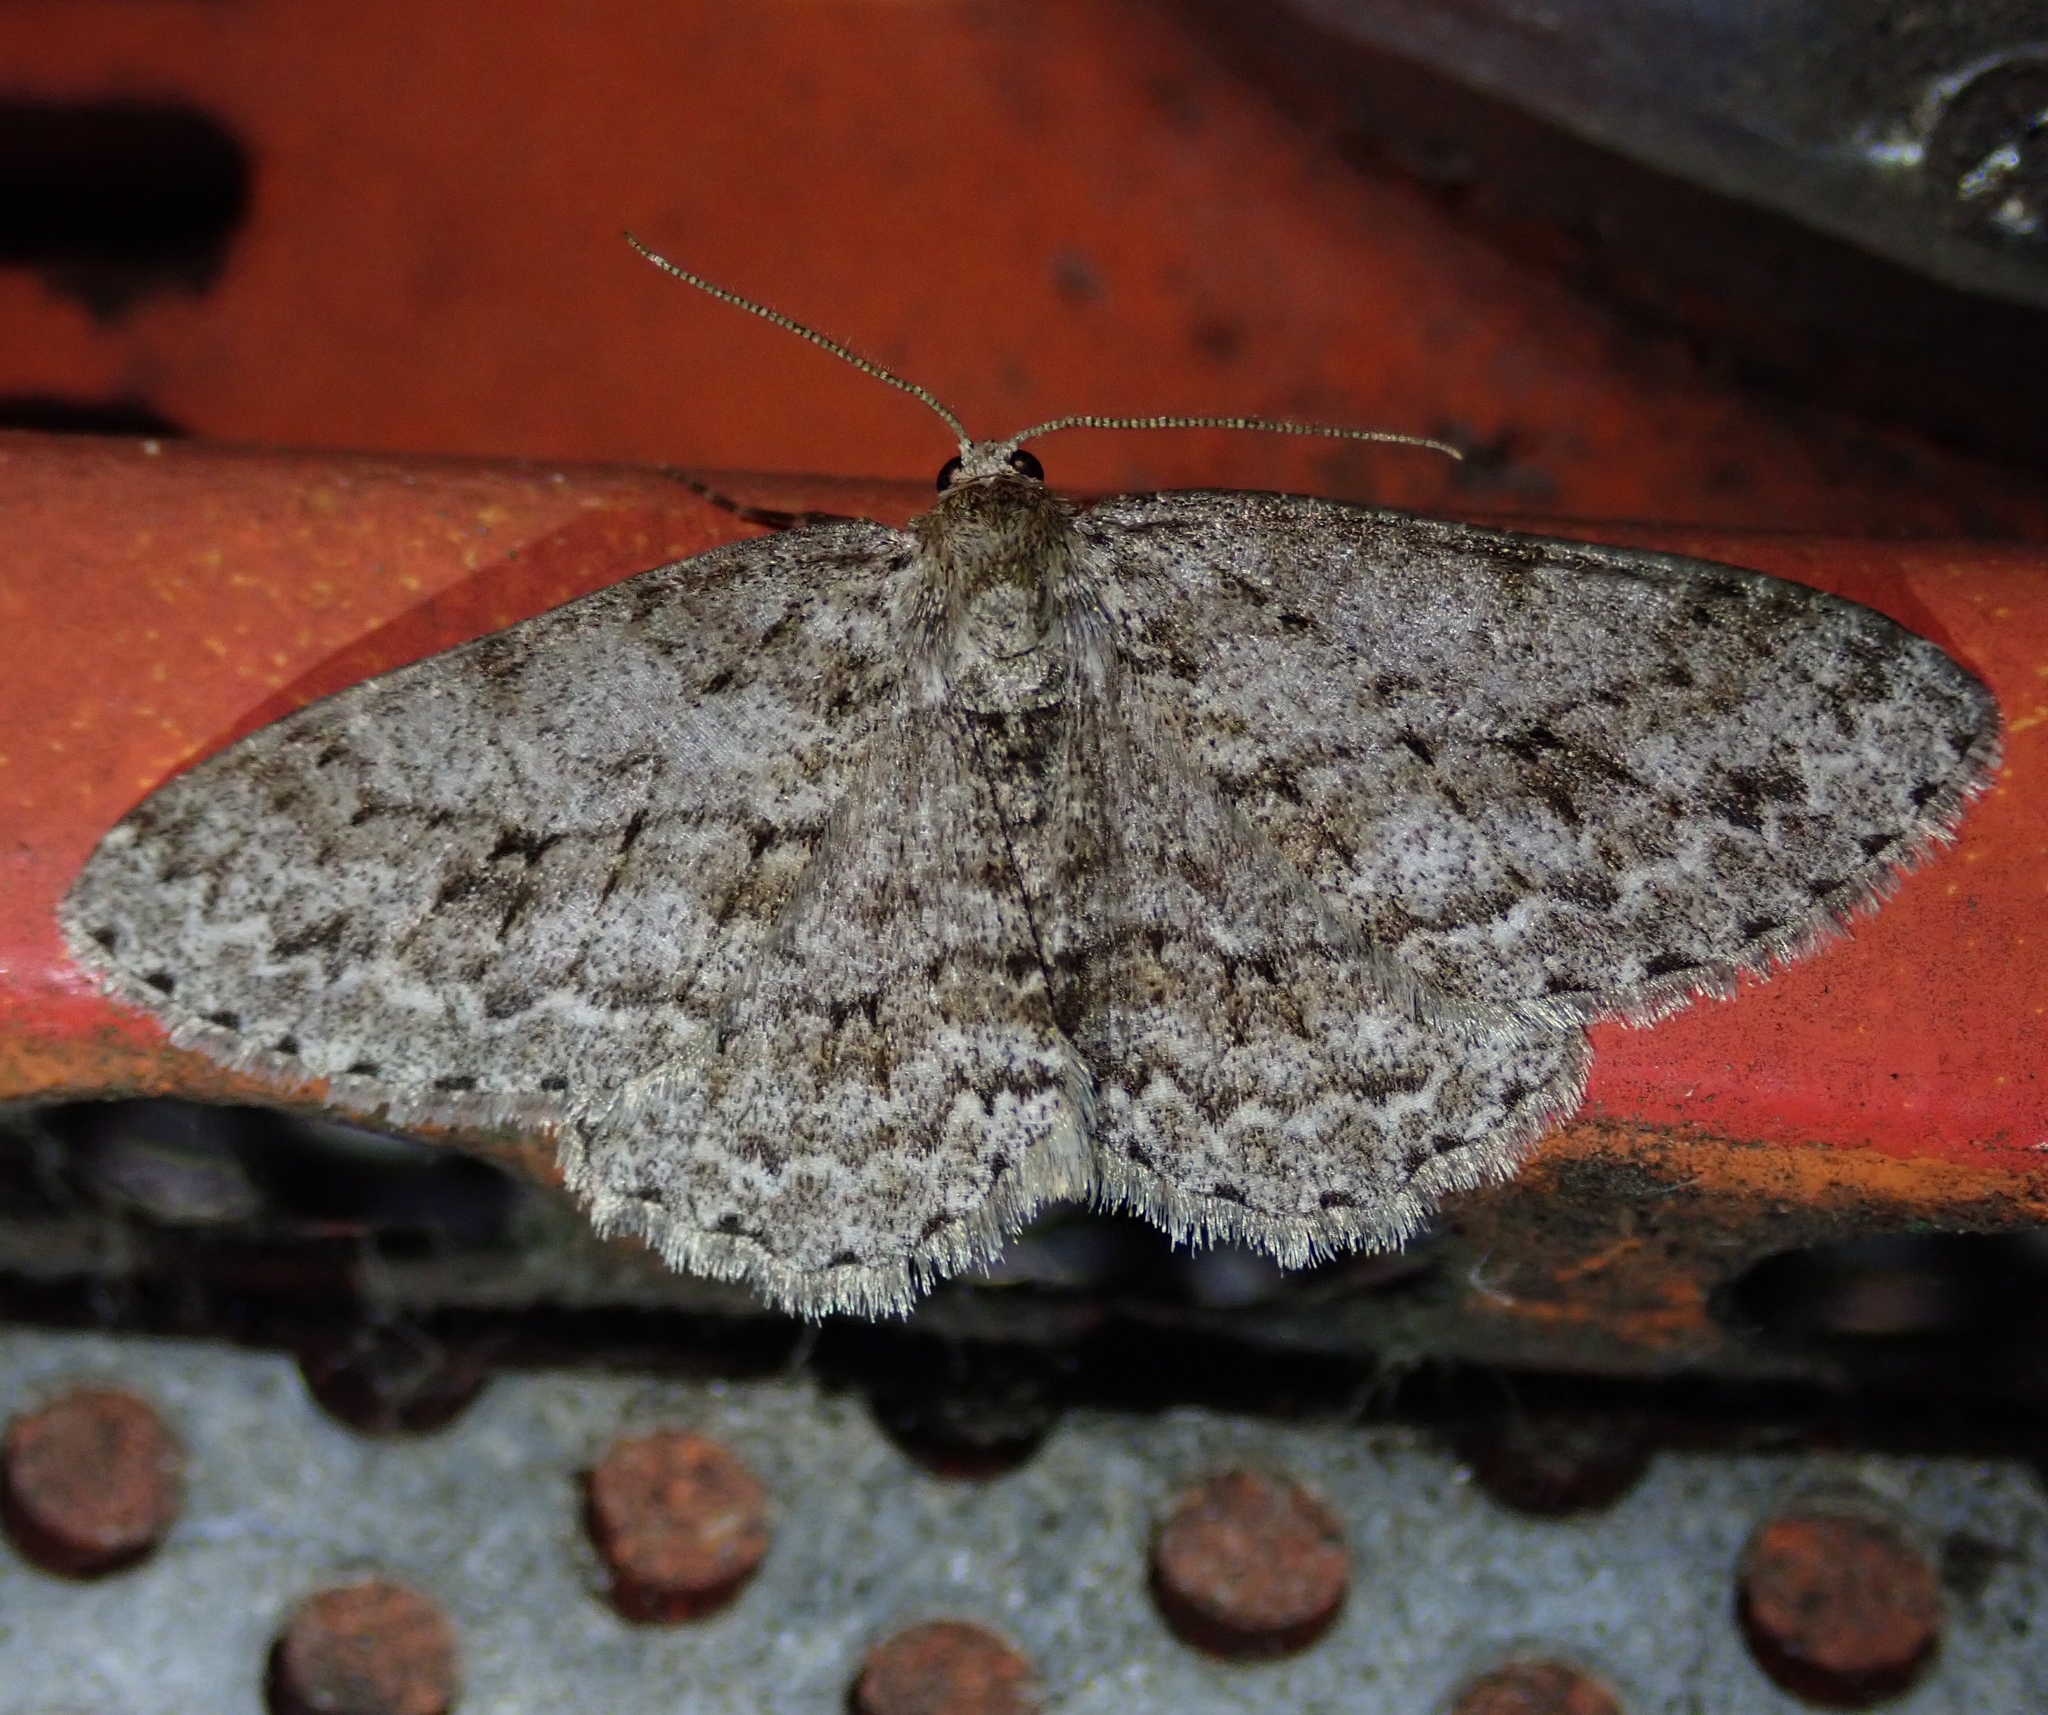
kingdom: Animalia
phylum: Arthropoda
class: Insecta
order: Lepidoptera
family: Geometridae
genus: Ectropis
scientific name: Ectropis crepuscularia
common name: Engrailed
